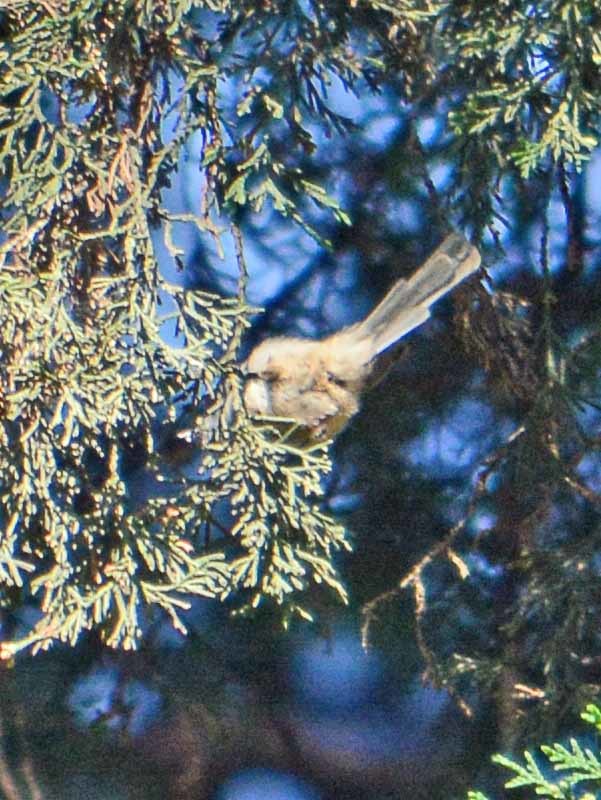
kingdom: Animalia
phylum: Chordata
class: Aves
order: Passeriformes
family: Aegithalidae
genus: Psaltriparus
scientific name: Psaltriparus minimus
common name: American bushtit
